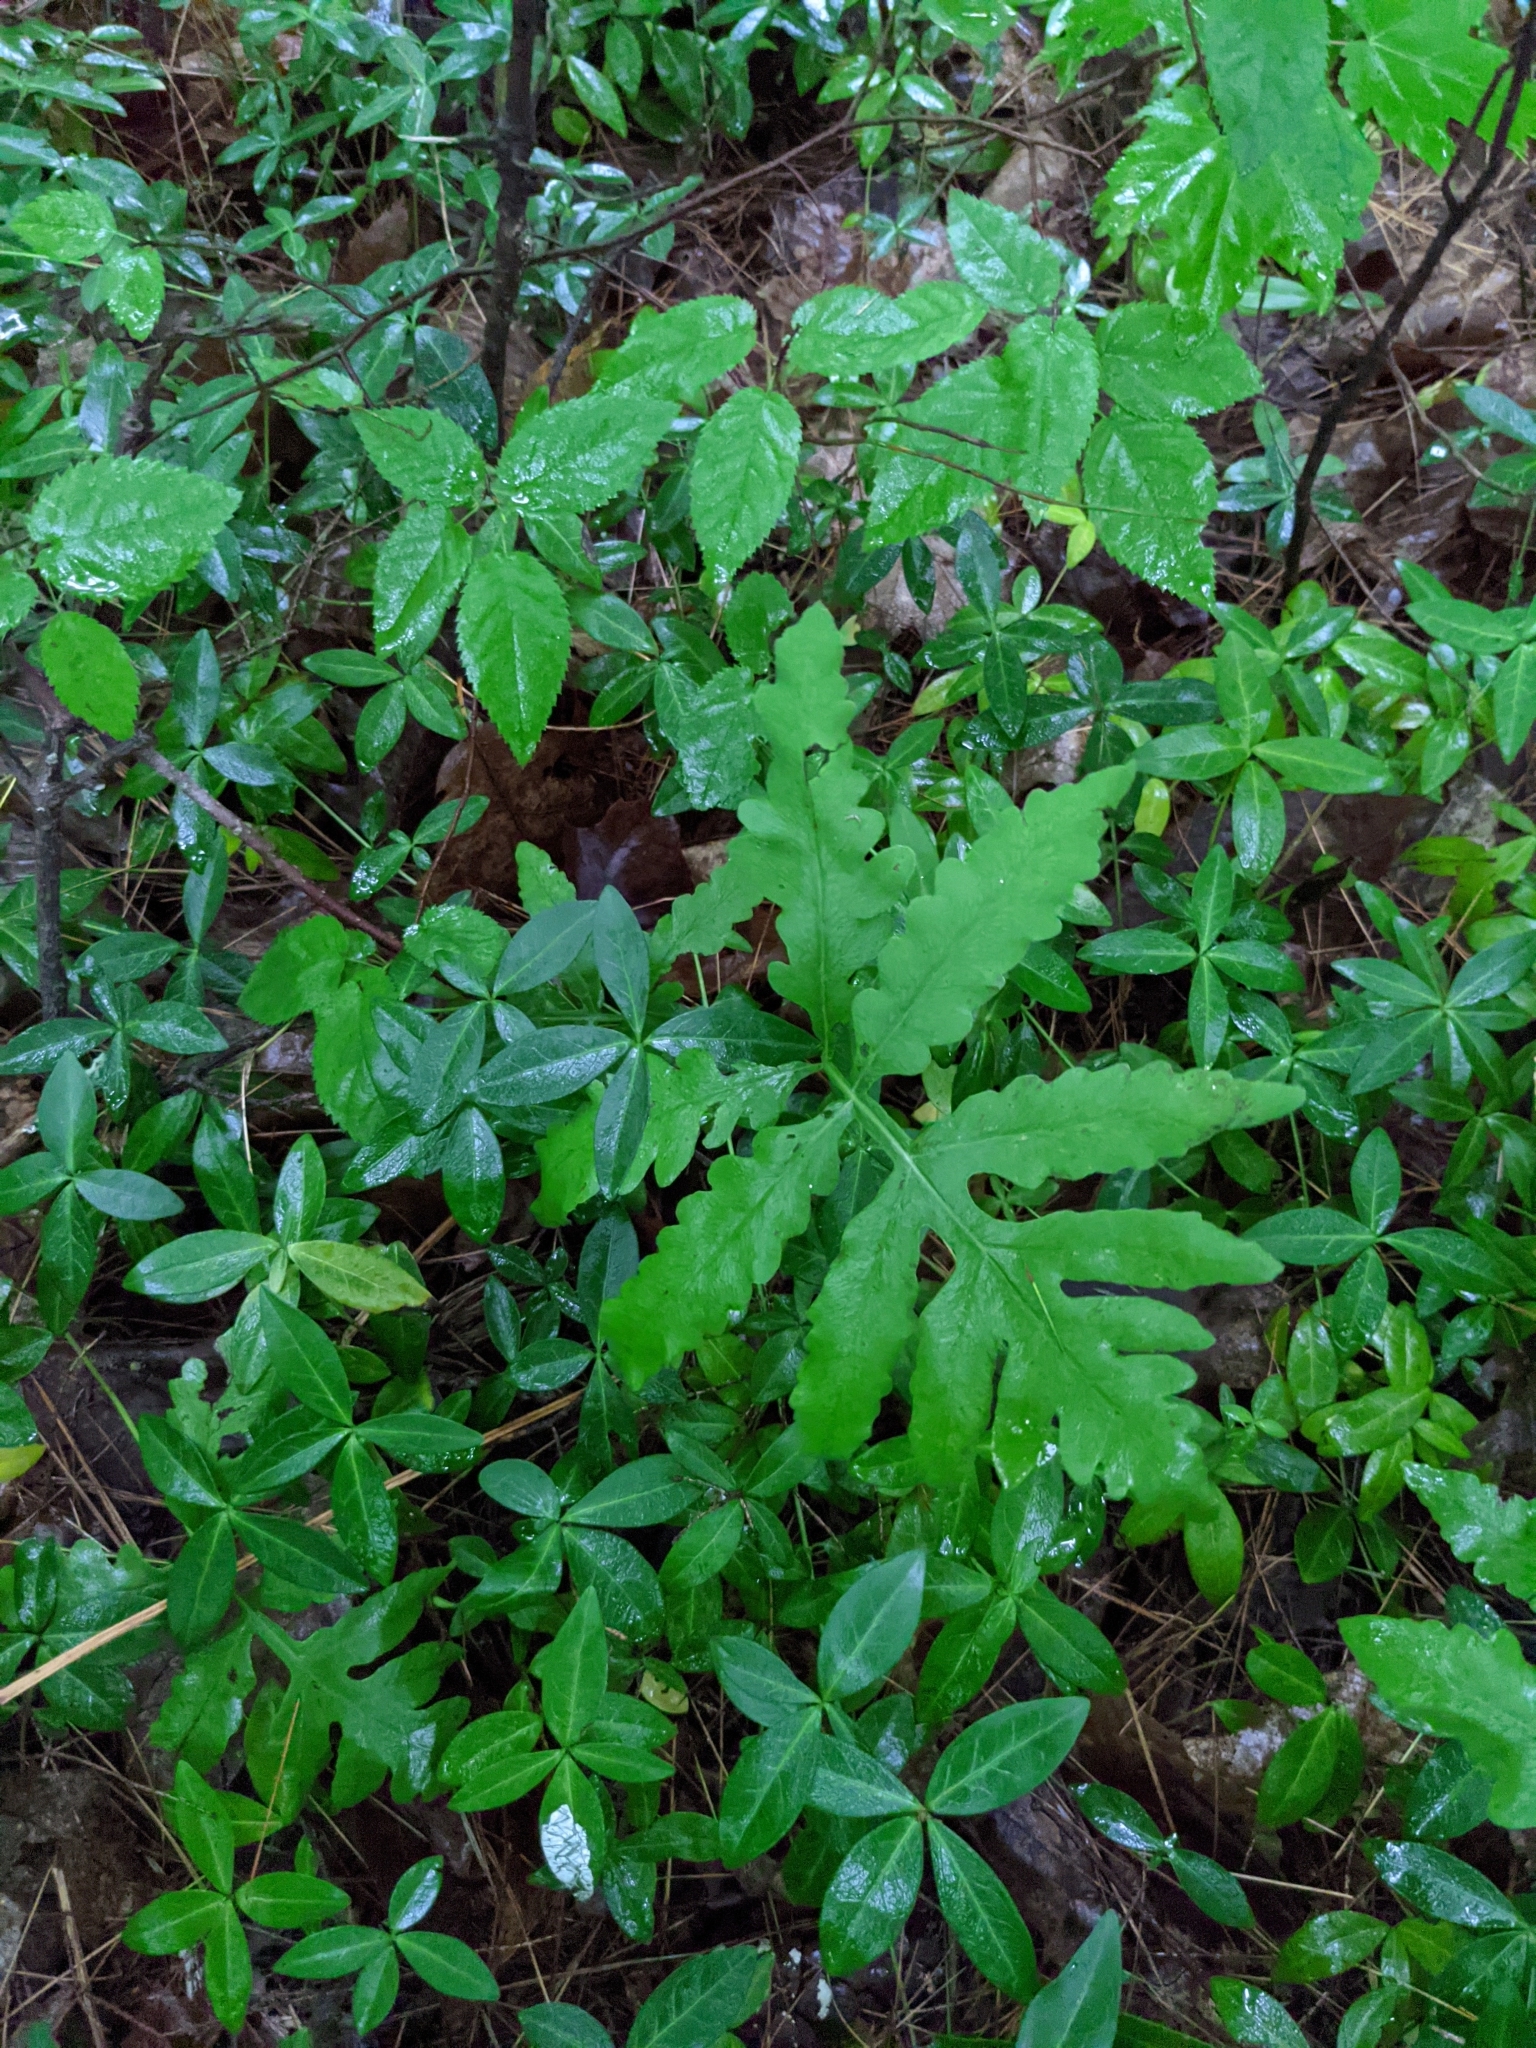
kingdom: Plantae
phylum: Tracheophyta
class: Polypodiopsida
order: Polypodiales
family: Onocleaceae
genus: Onoclea
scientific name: Onoclea sensibilis
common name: Sensitive fern
